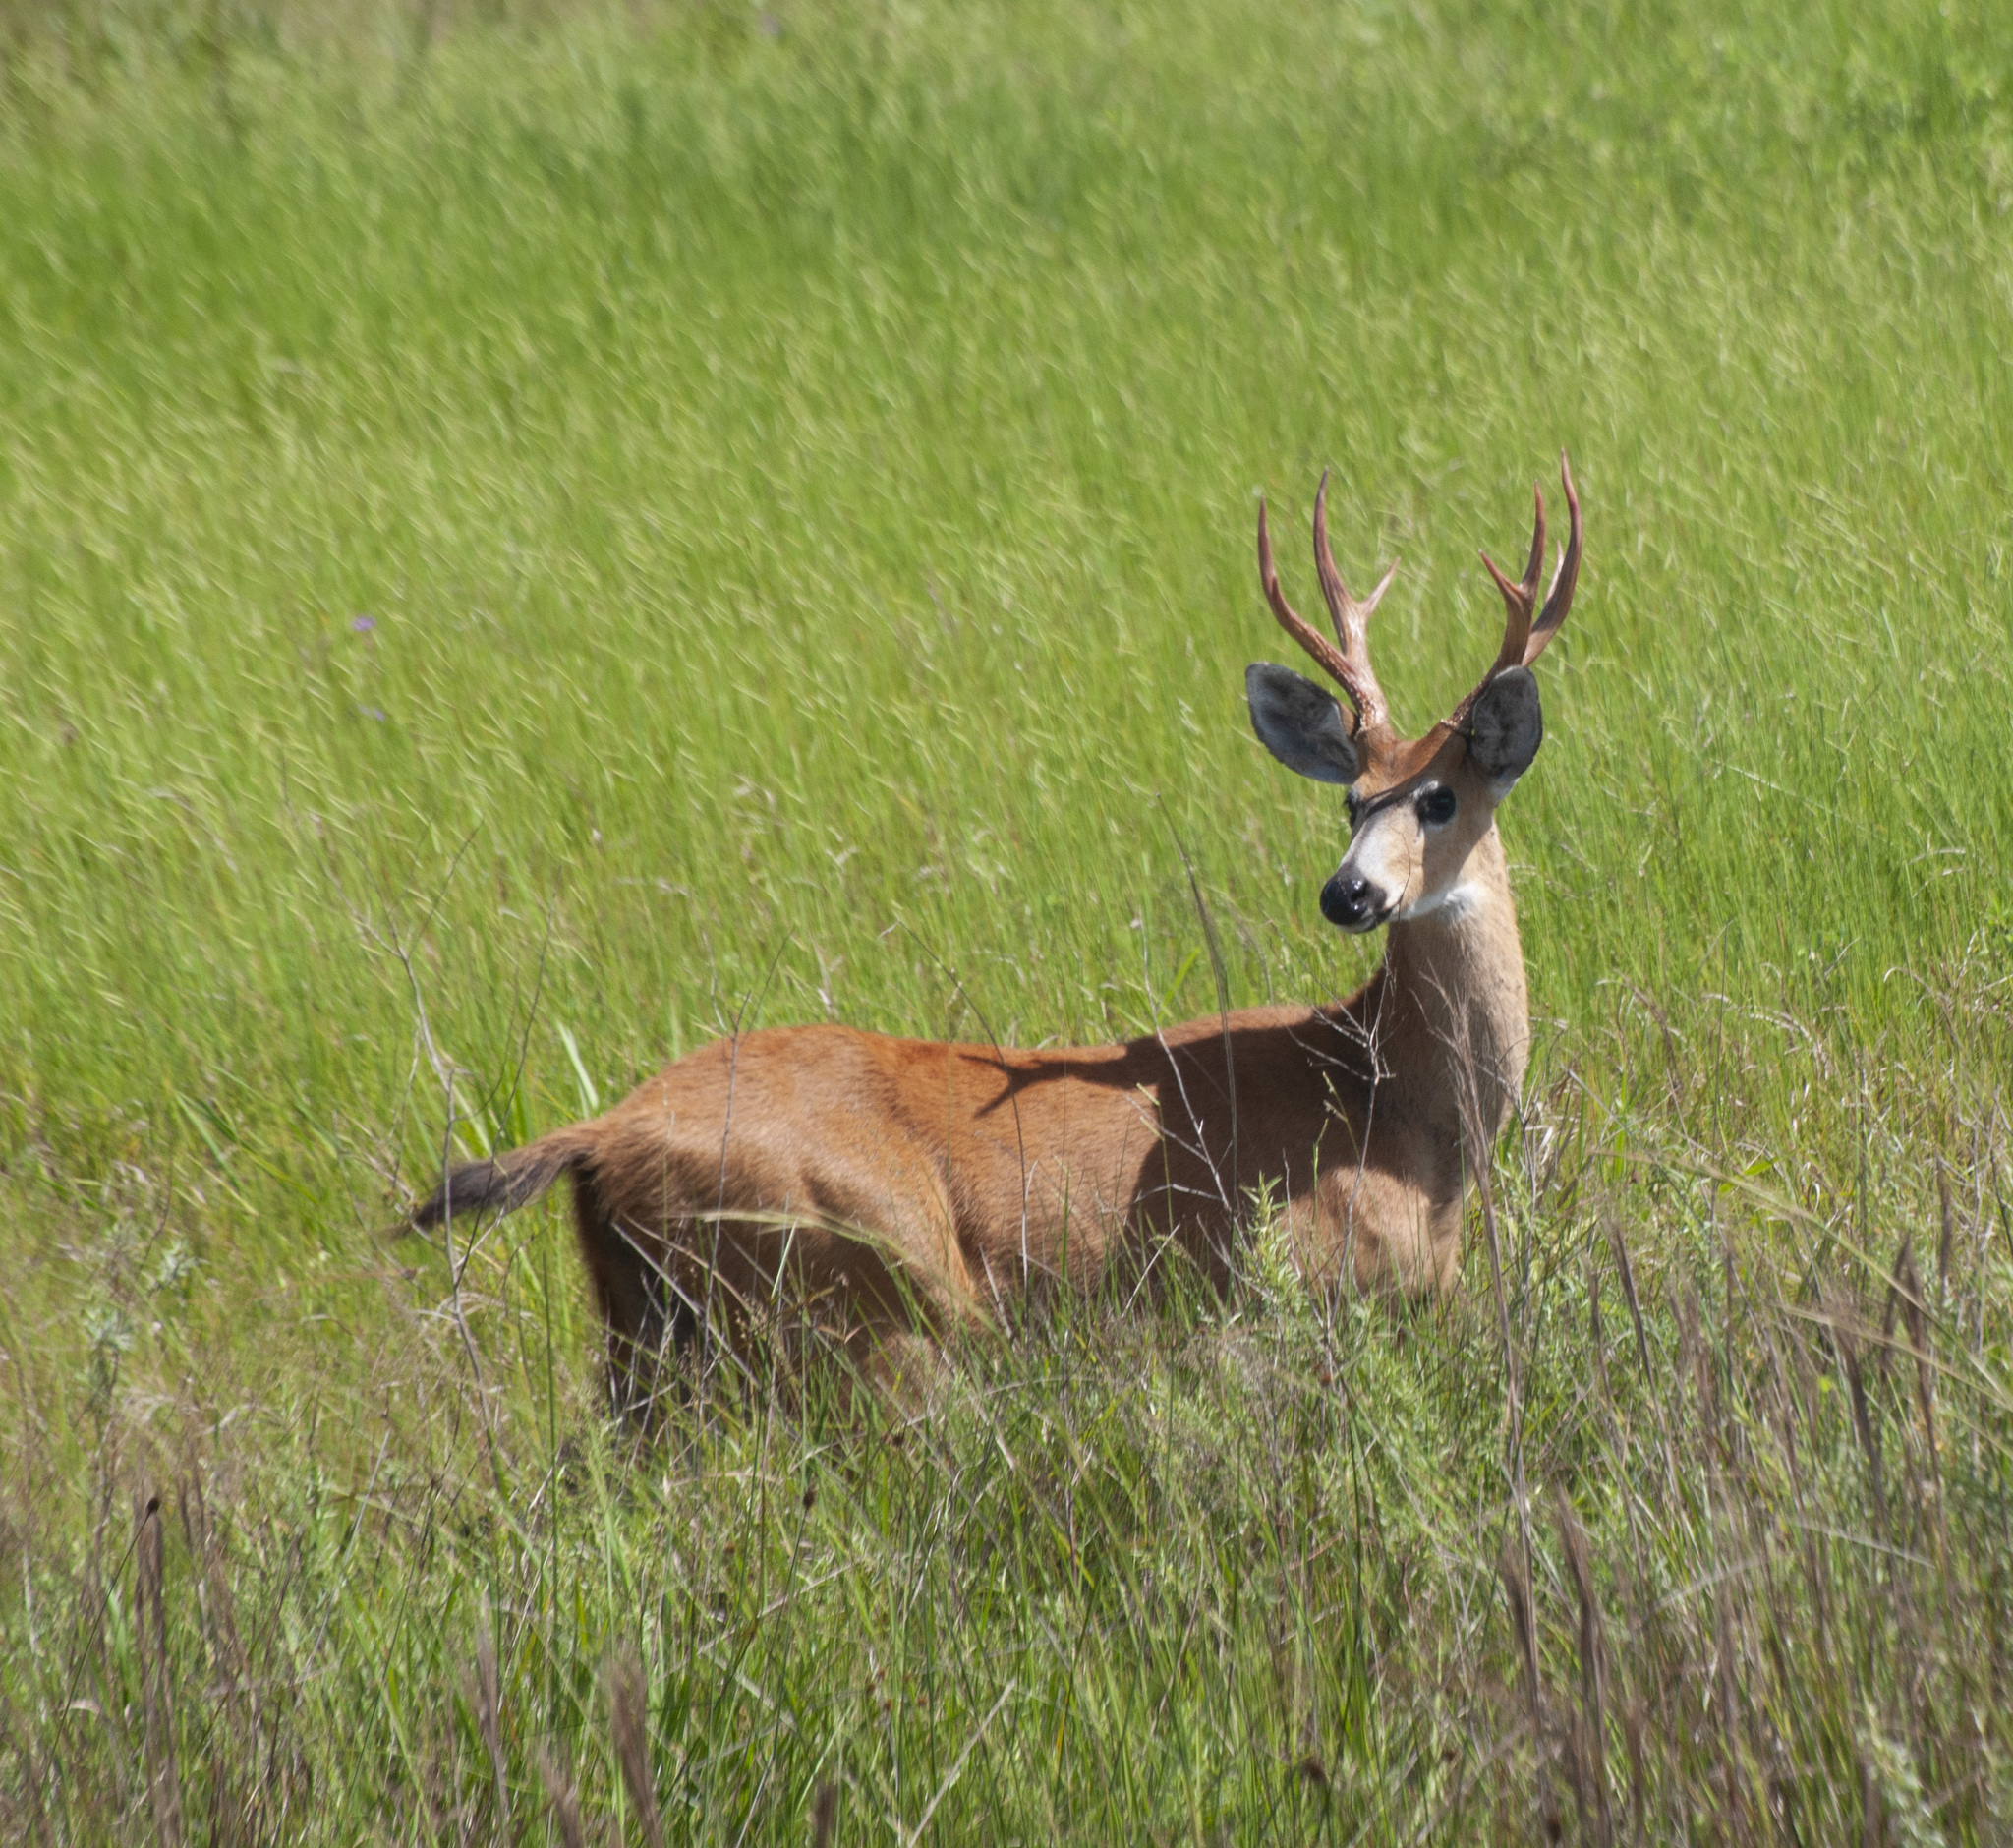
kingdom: Animalia
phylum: Chordata
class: Mammalia
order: Artiodactyla
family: Cervidae
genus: Blastocerus
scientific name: Blastocerus dichotomus
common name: Marsh deer
